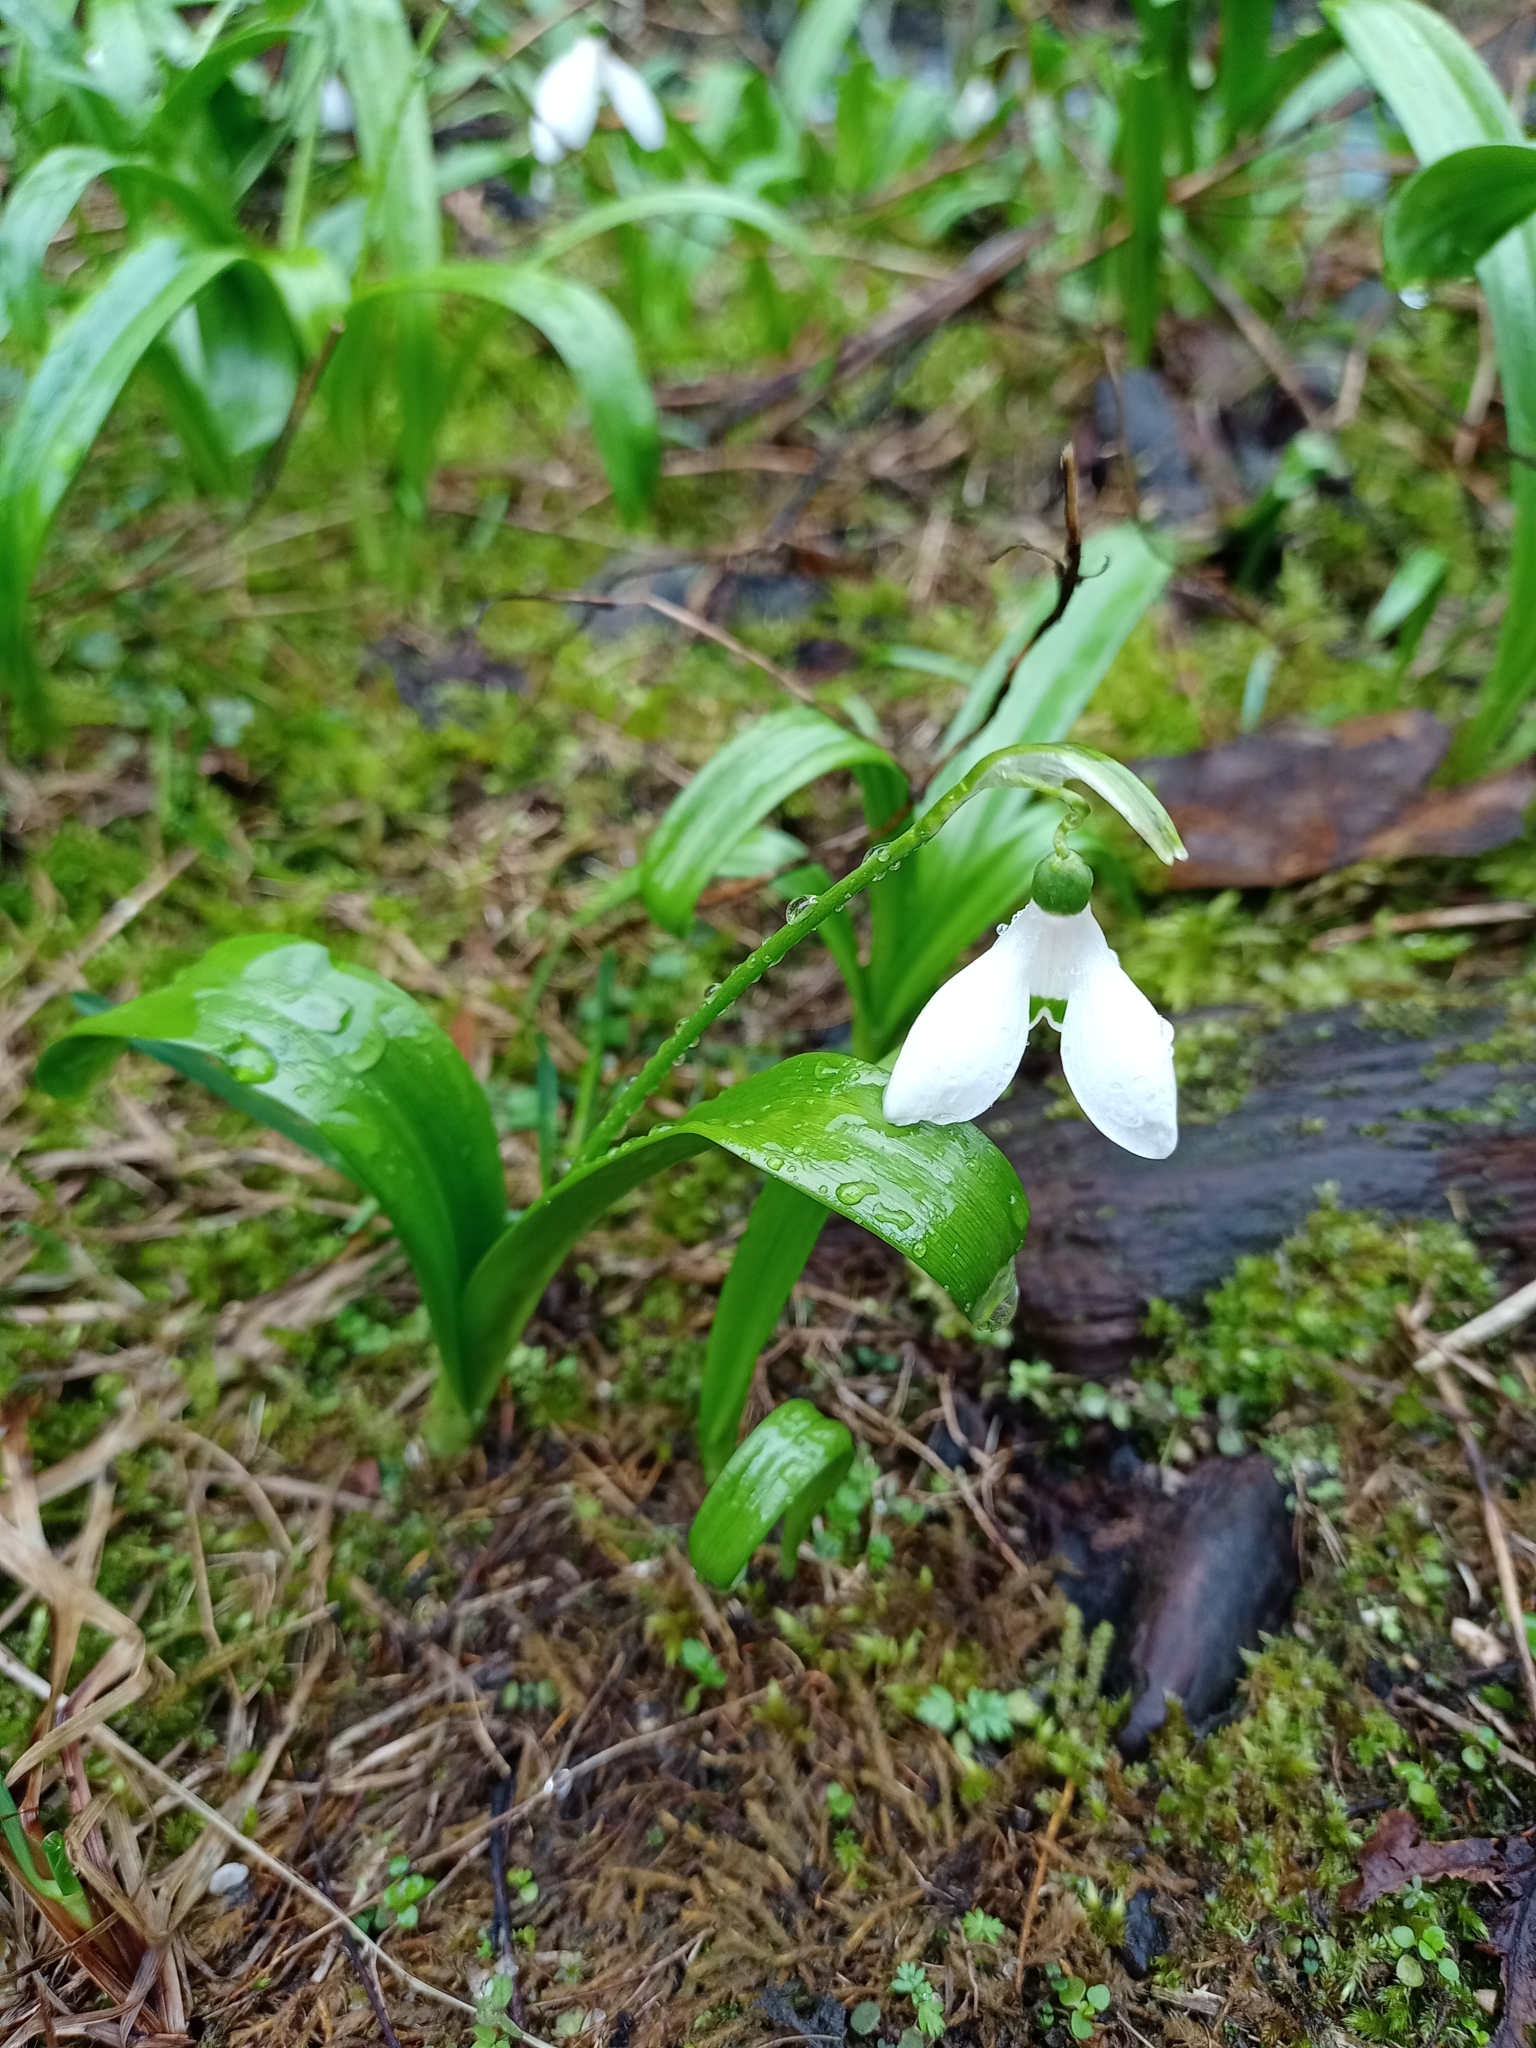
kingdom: Plantae
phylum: Tracheophyta
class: Liliopsida
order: Asparagales
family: Amaryllidaceae
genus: Galanthus
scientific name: Galanthus woronowii
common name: Green snowdrop
